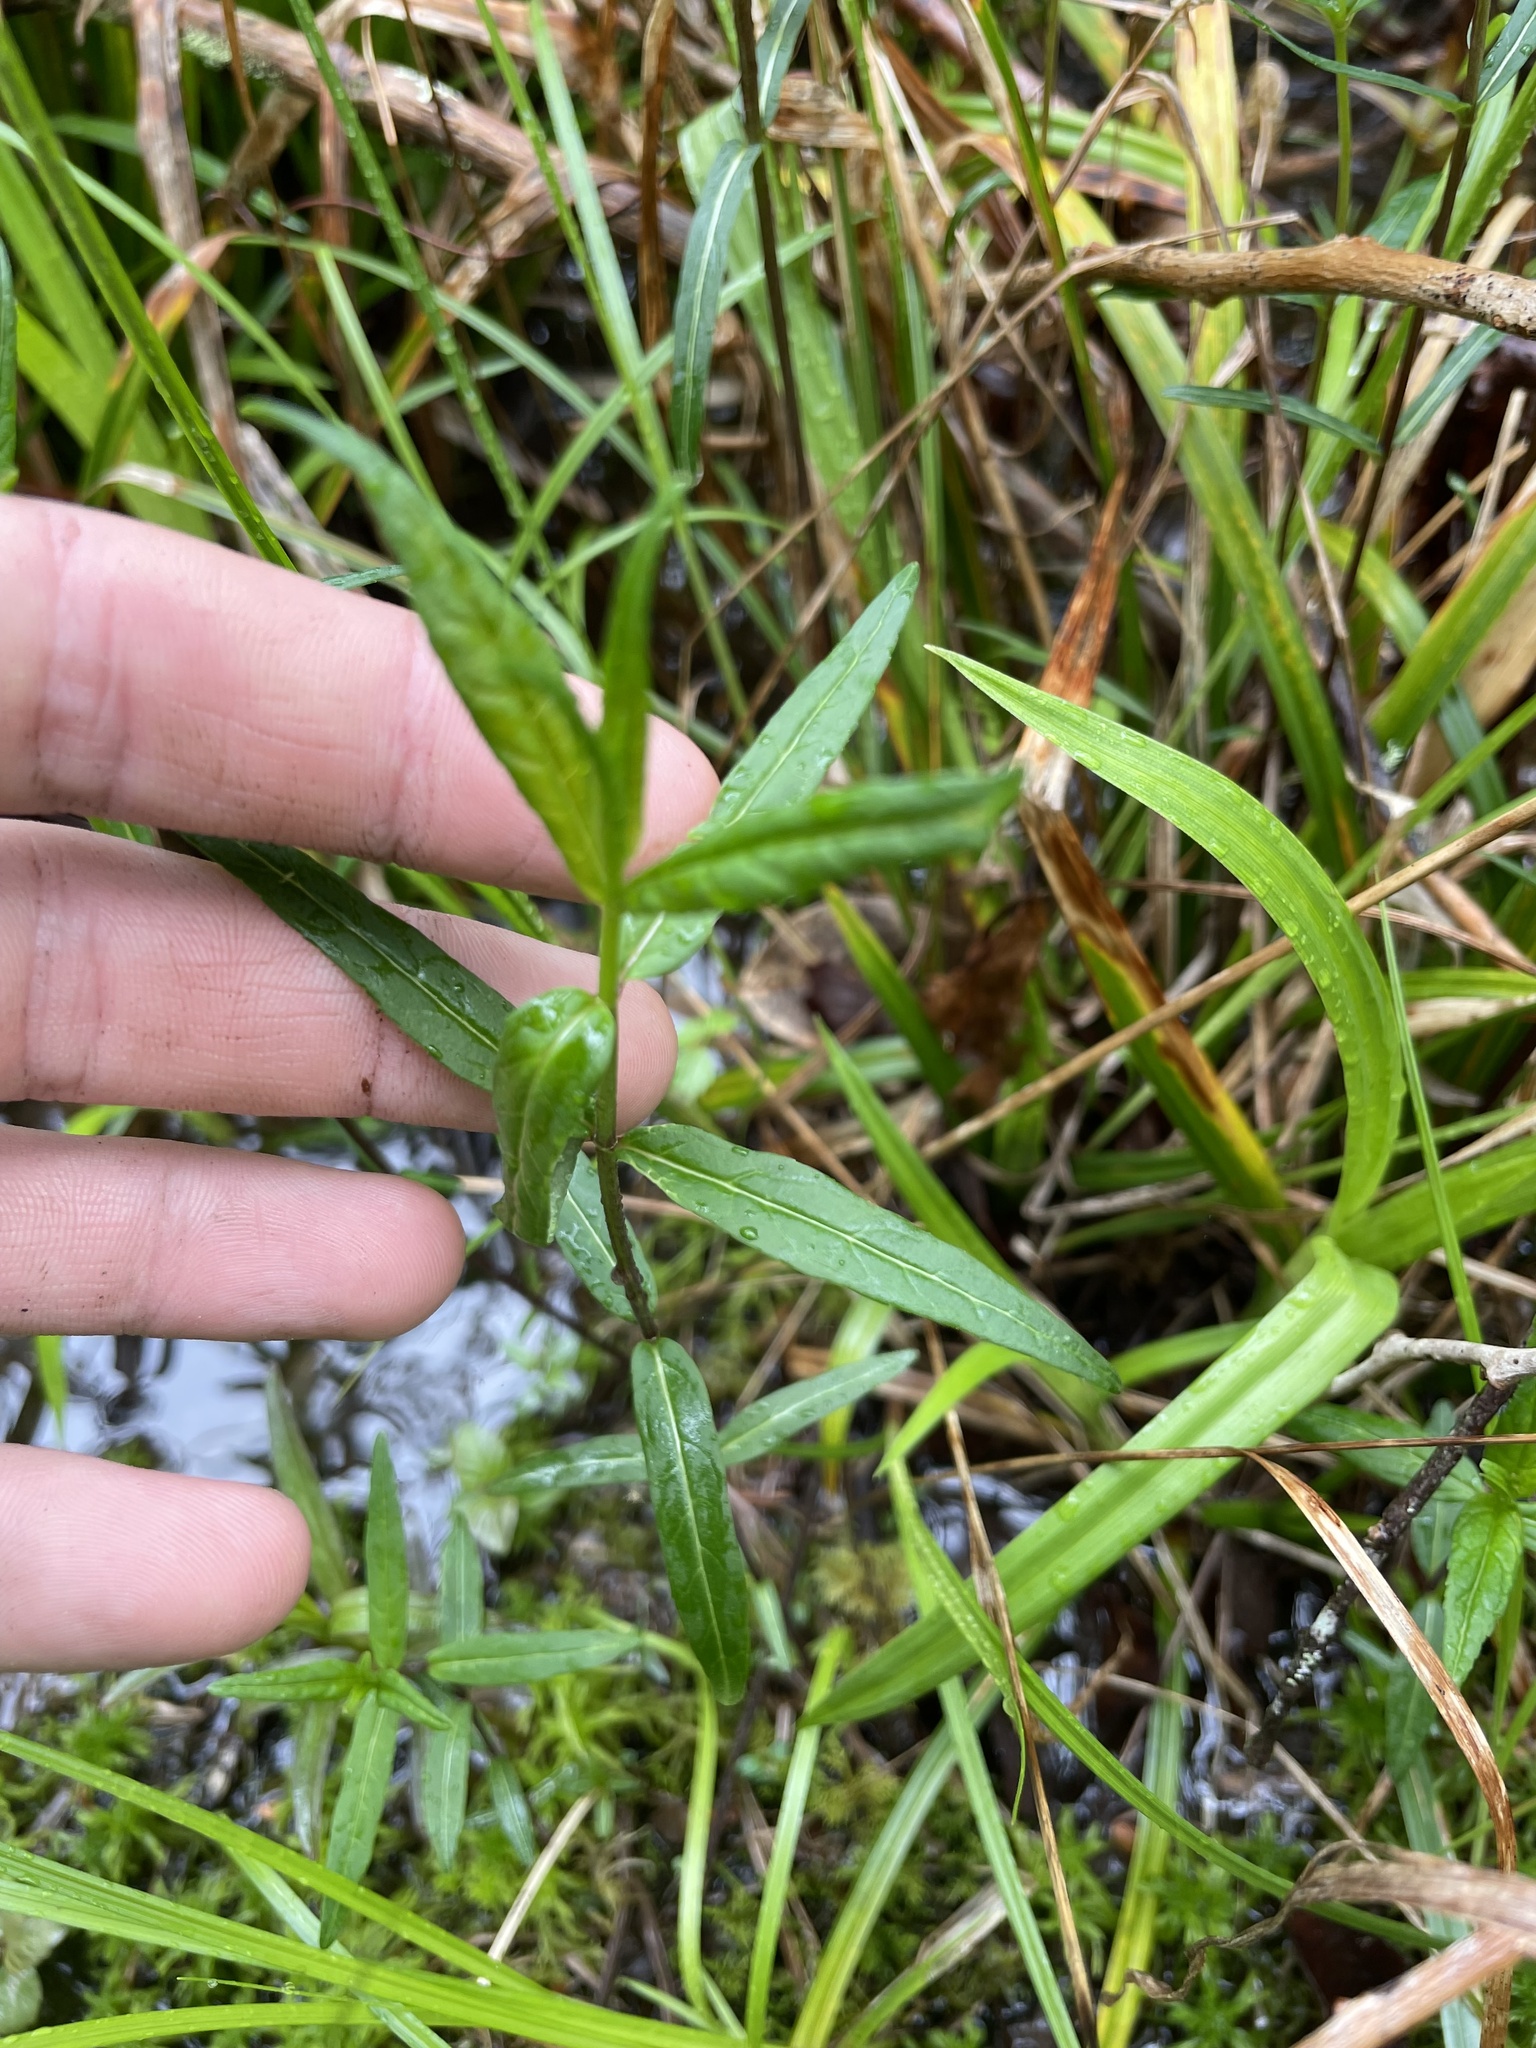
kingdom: Plantae
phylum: Tracheophyta
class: Magnoliopsida
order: Lamiales
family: Plantaginaceae
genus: Chelone
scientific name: Chelone cuthbertii
